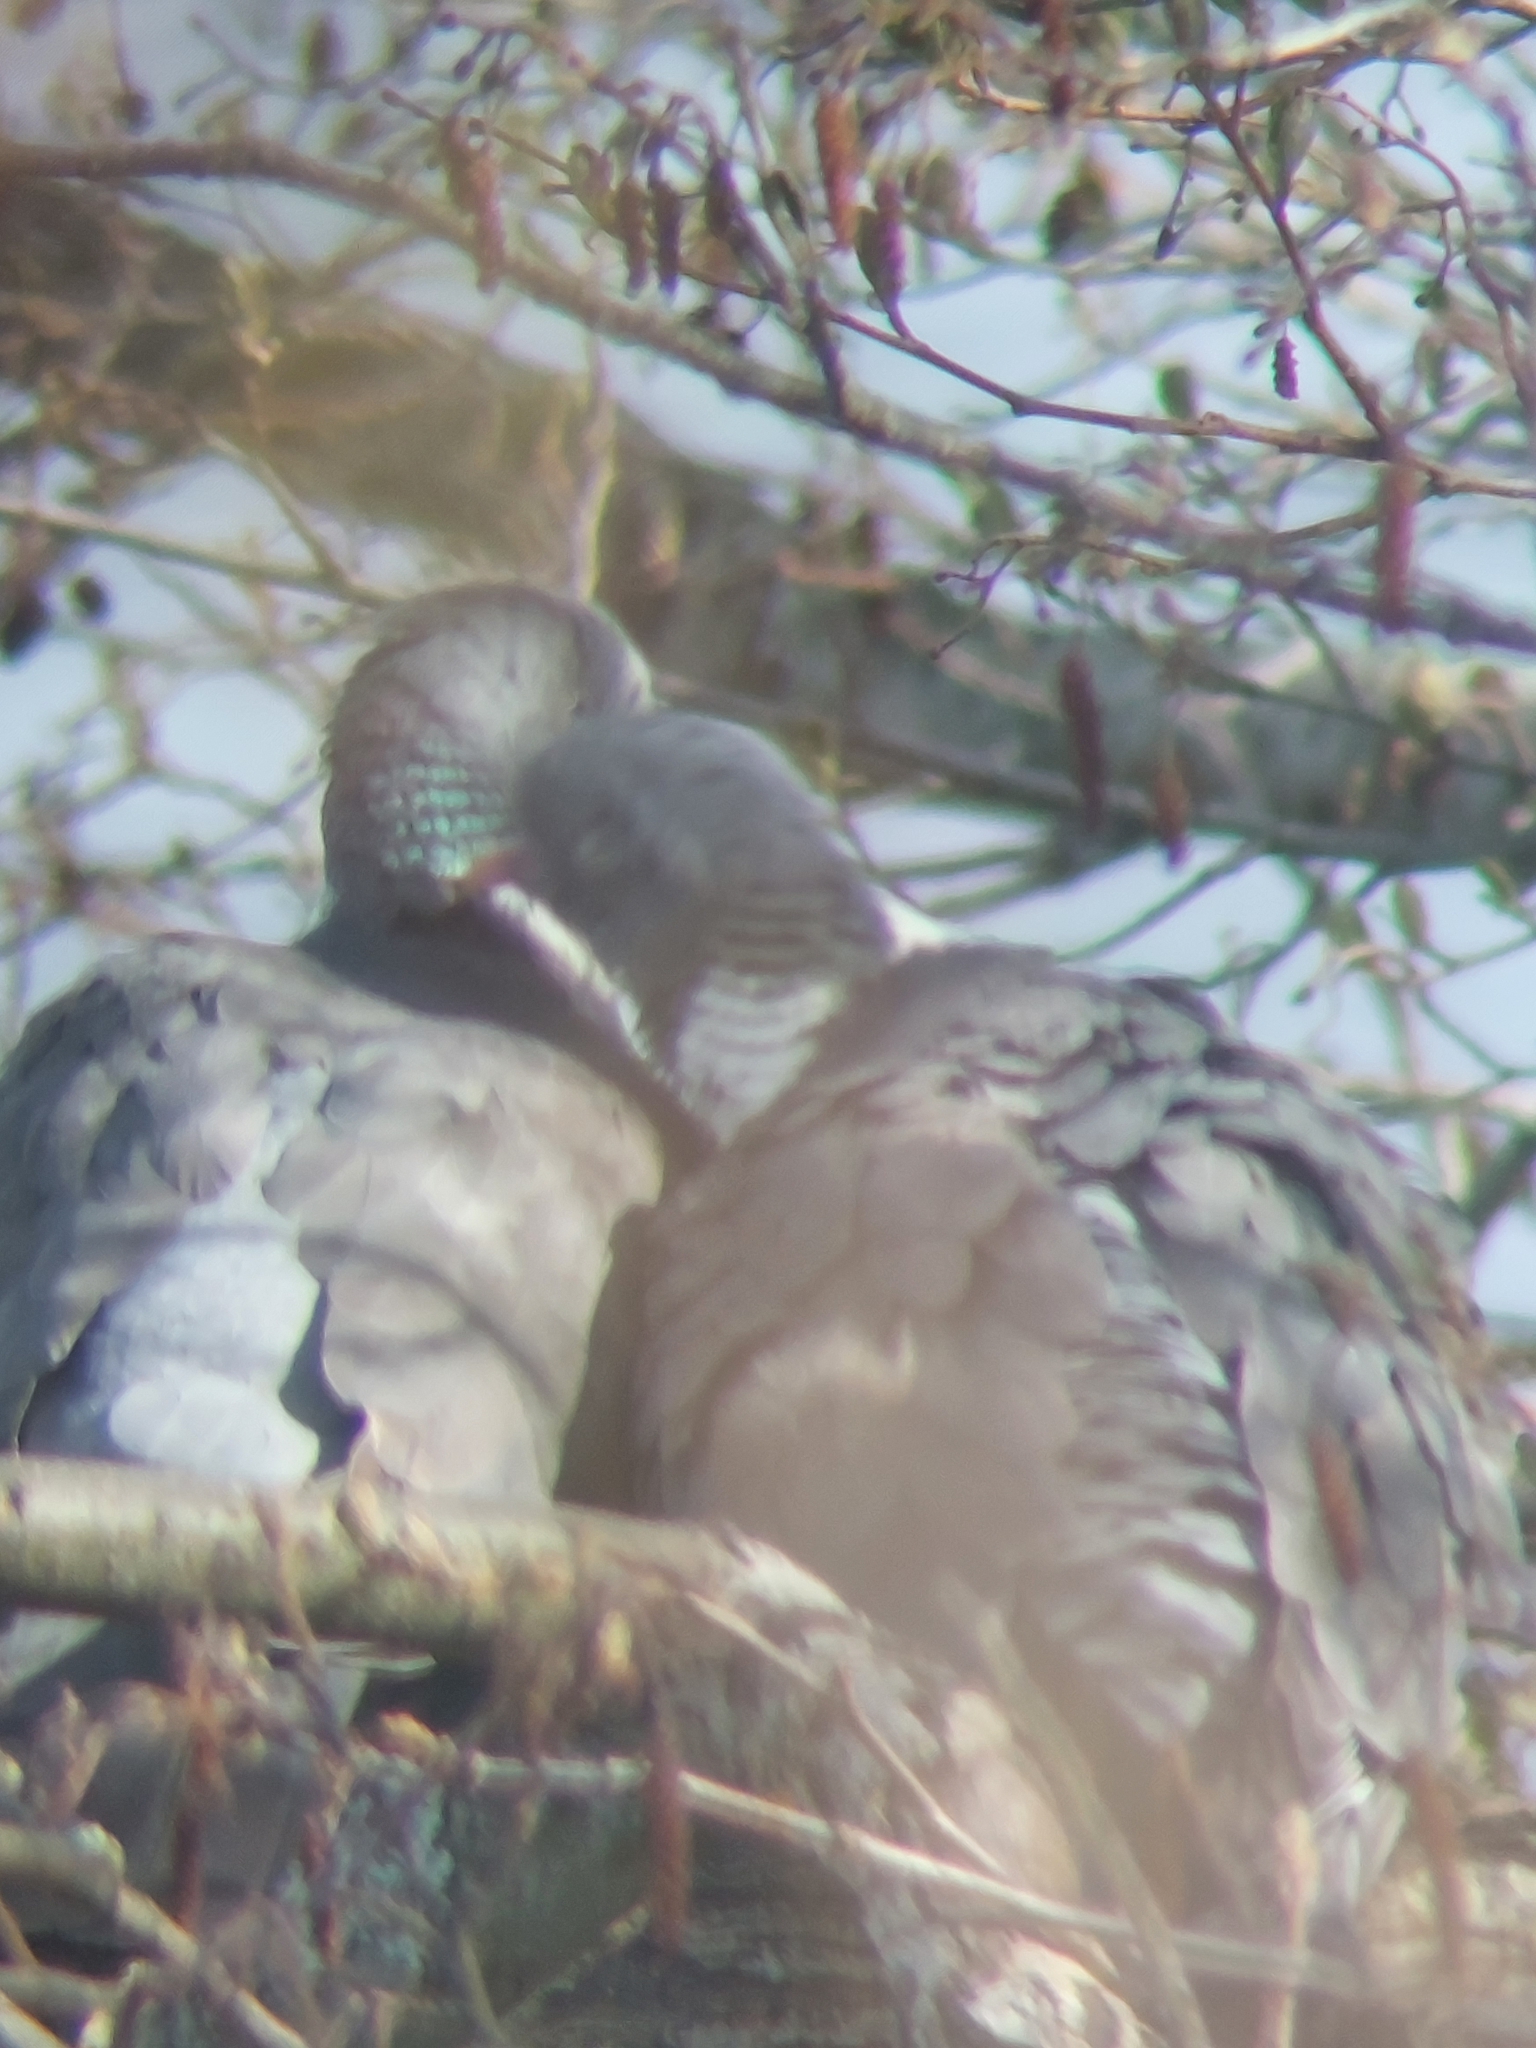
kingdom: Animalia
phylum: Chordata
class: Aves
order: Columbiformes
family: Columbidae
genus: Columba
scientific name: Columba palumbus
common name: Common wood pigeon
